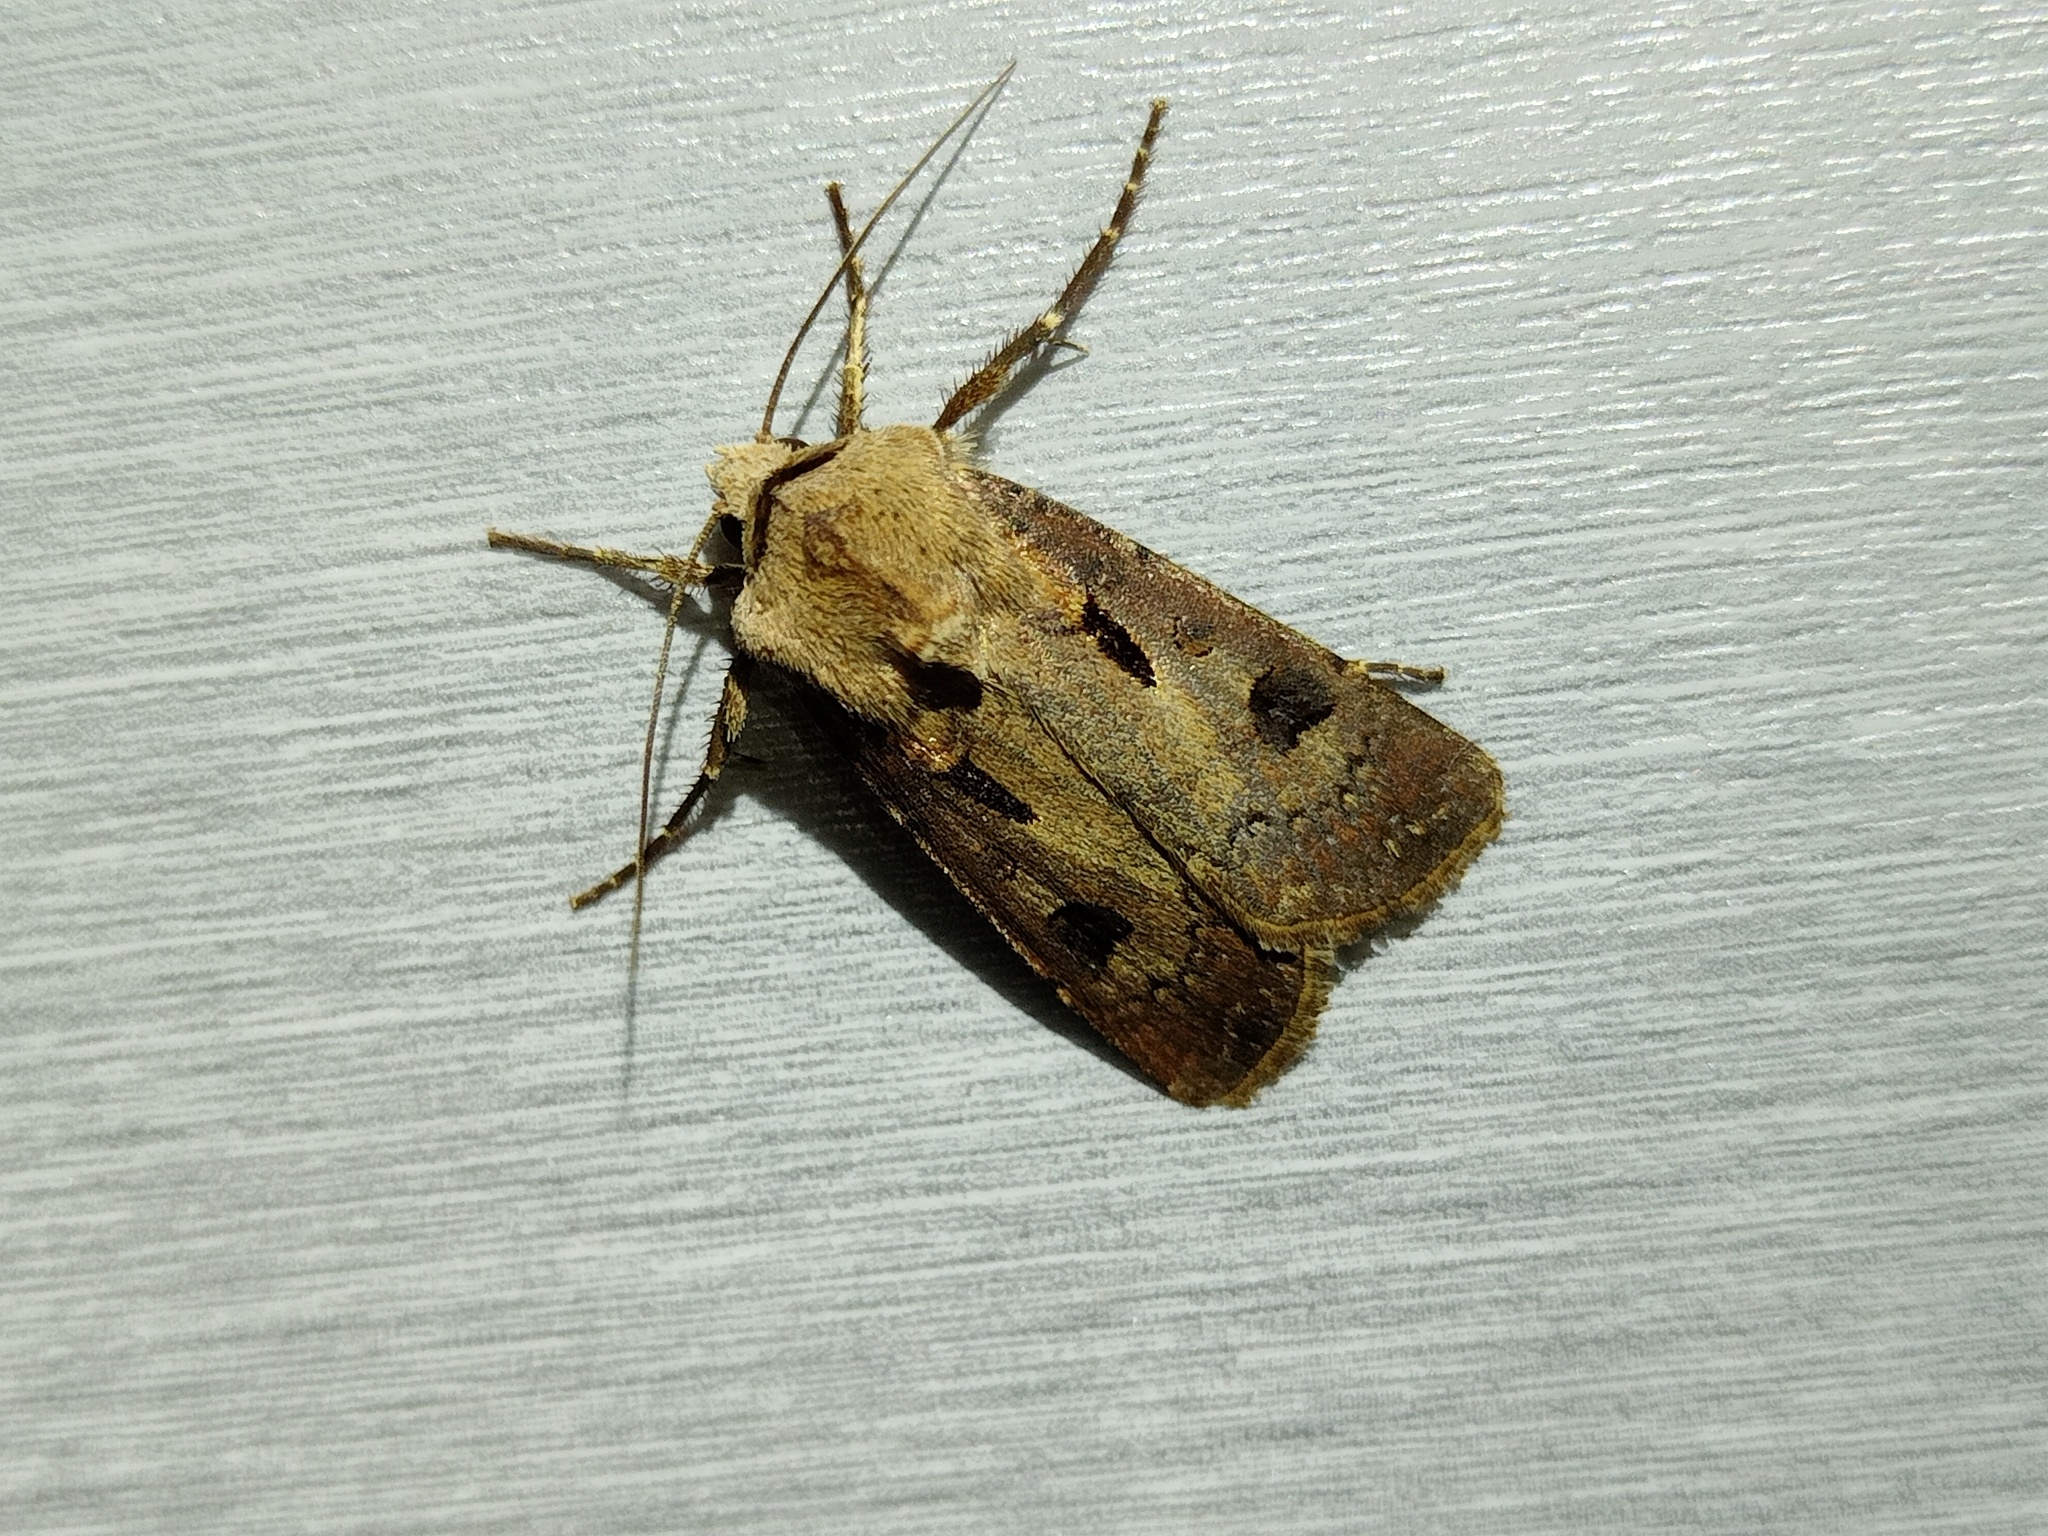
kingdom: Animalia
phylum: Arthropoda
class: Insecta
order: Lepidoptera
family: Noctuidae
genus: Agrotis
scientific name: Agrotis exclamationis
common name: Heart and dart
